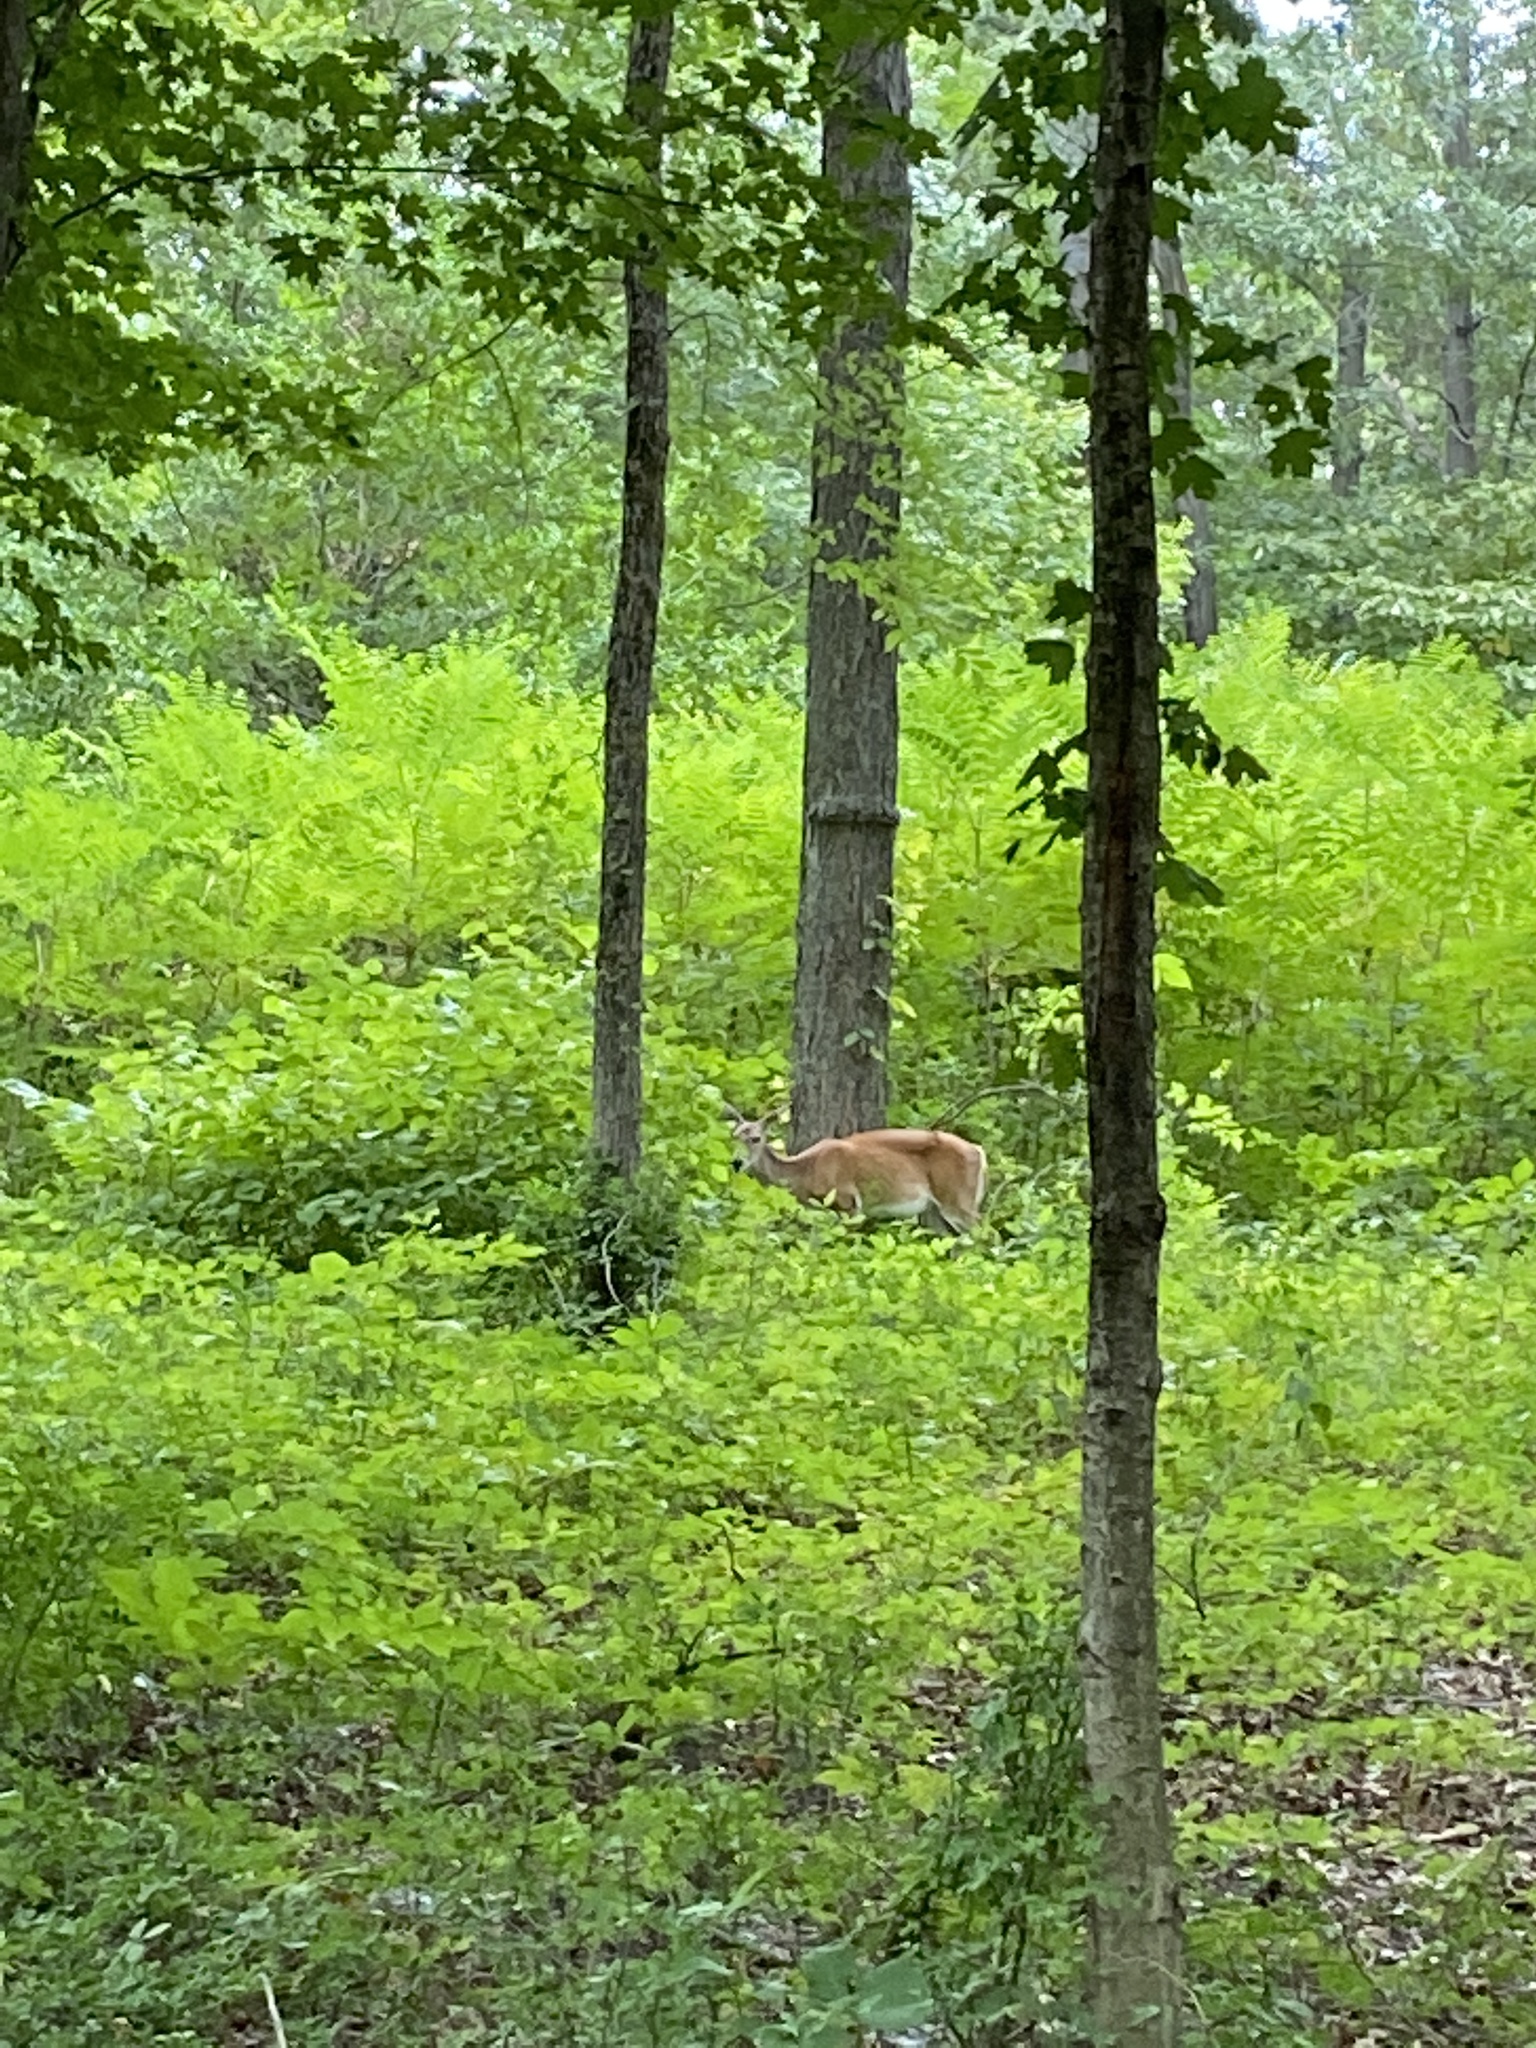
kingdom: Animalia
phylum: Chordata
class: Mammalia
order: Artiodactyla
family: Cervidae
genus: Odocoileus
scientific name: Odocoileus virginianus
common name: White-tailed deer
